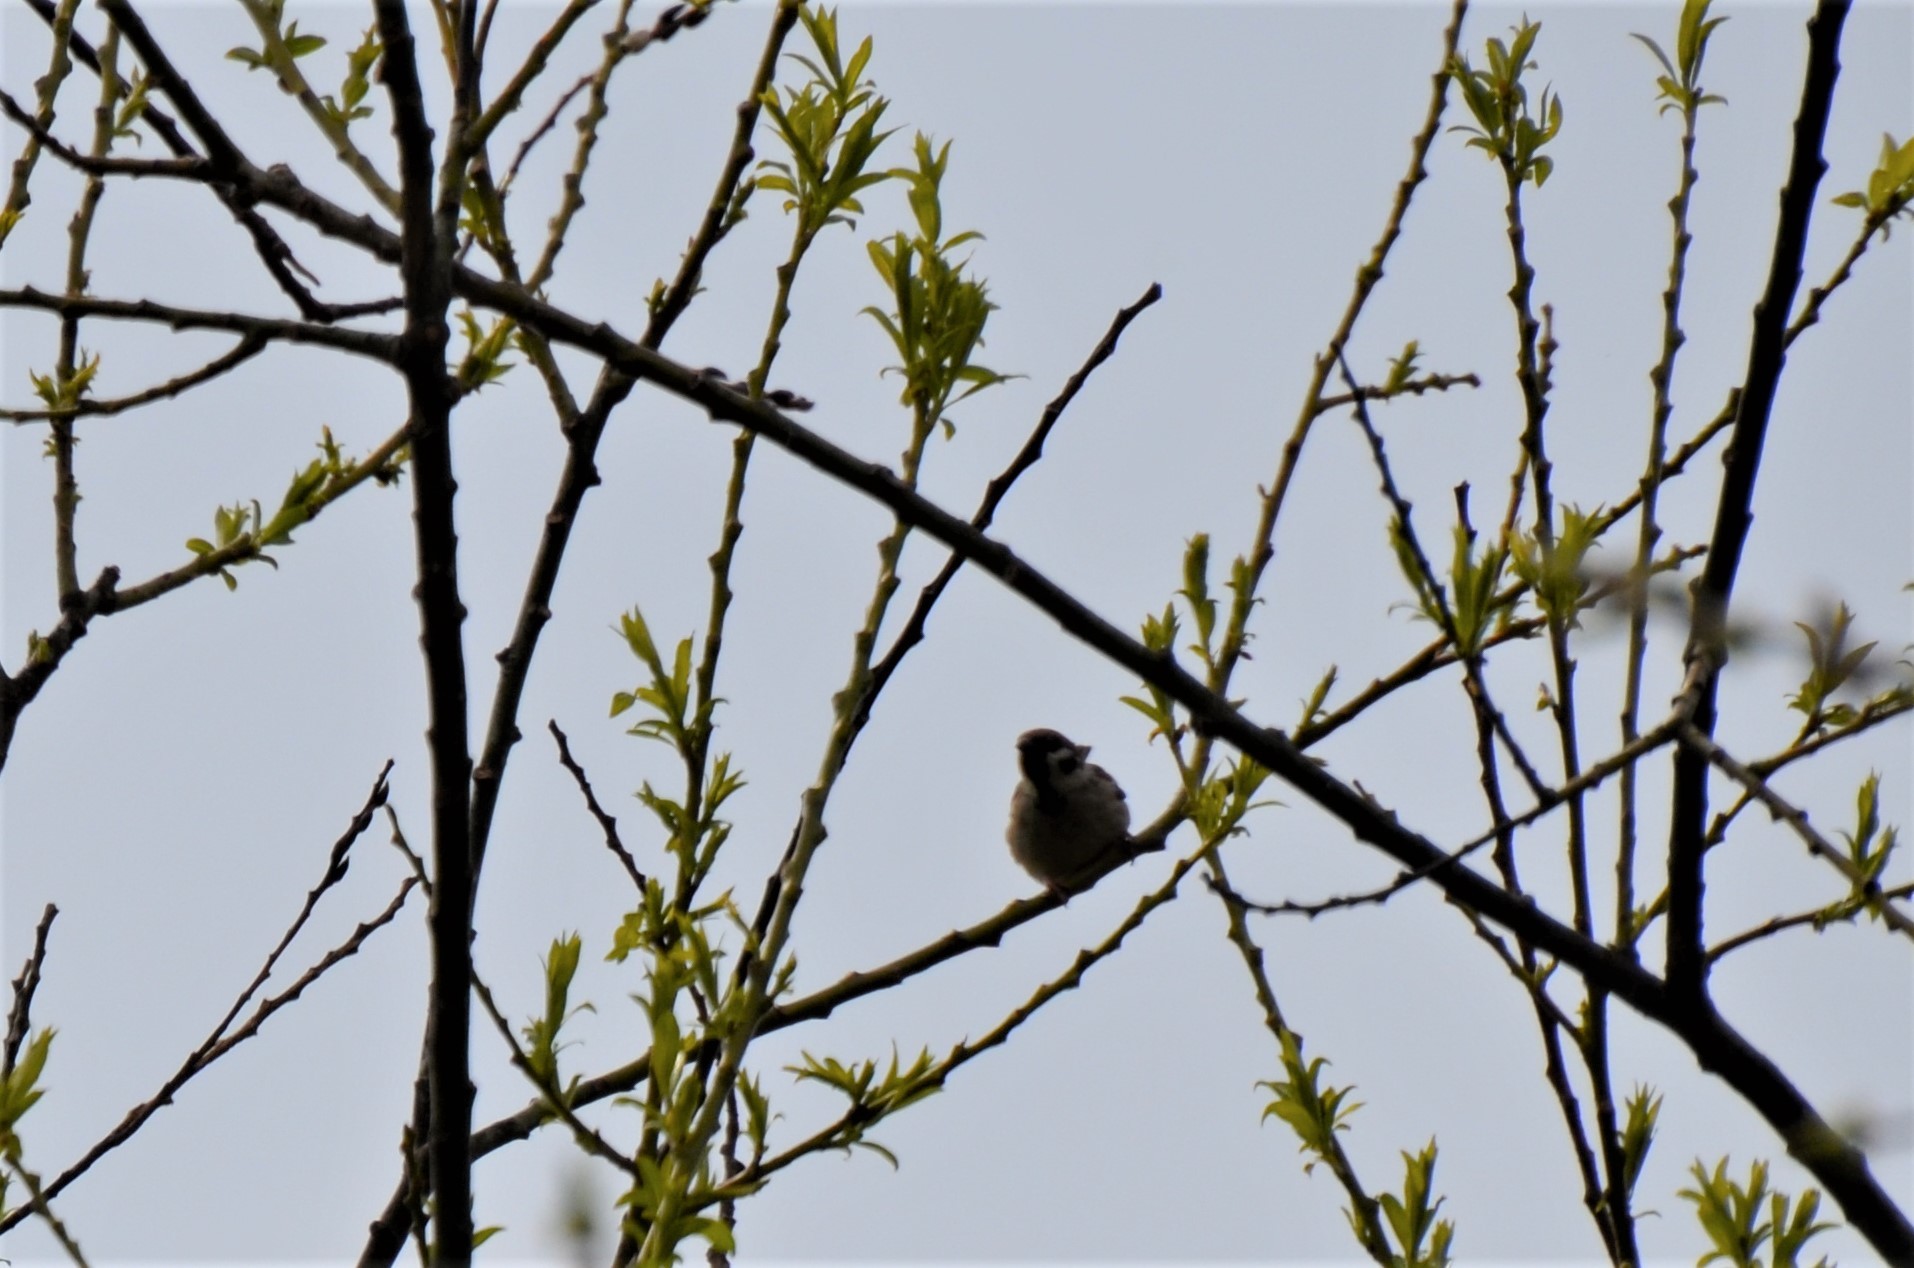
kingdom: Animalia
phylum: Chordata
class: Aves
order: Passeriformes
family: Passeridae
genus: Passer
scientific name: Passer montanus
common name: Eurasian tree sparrow
